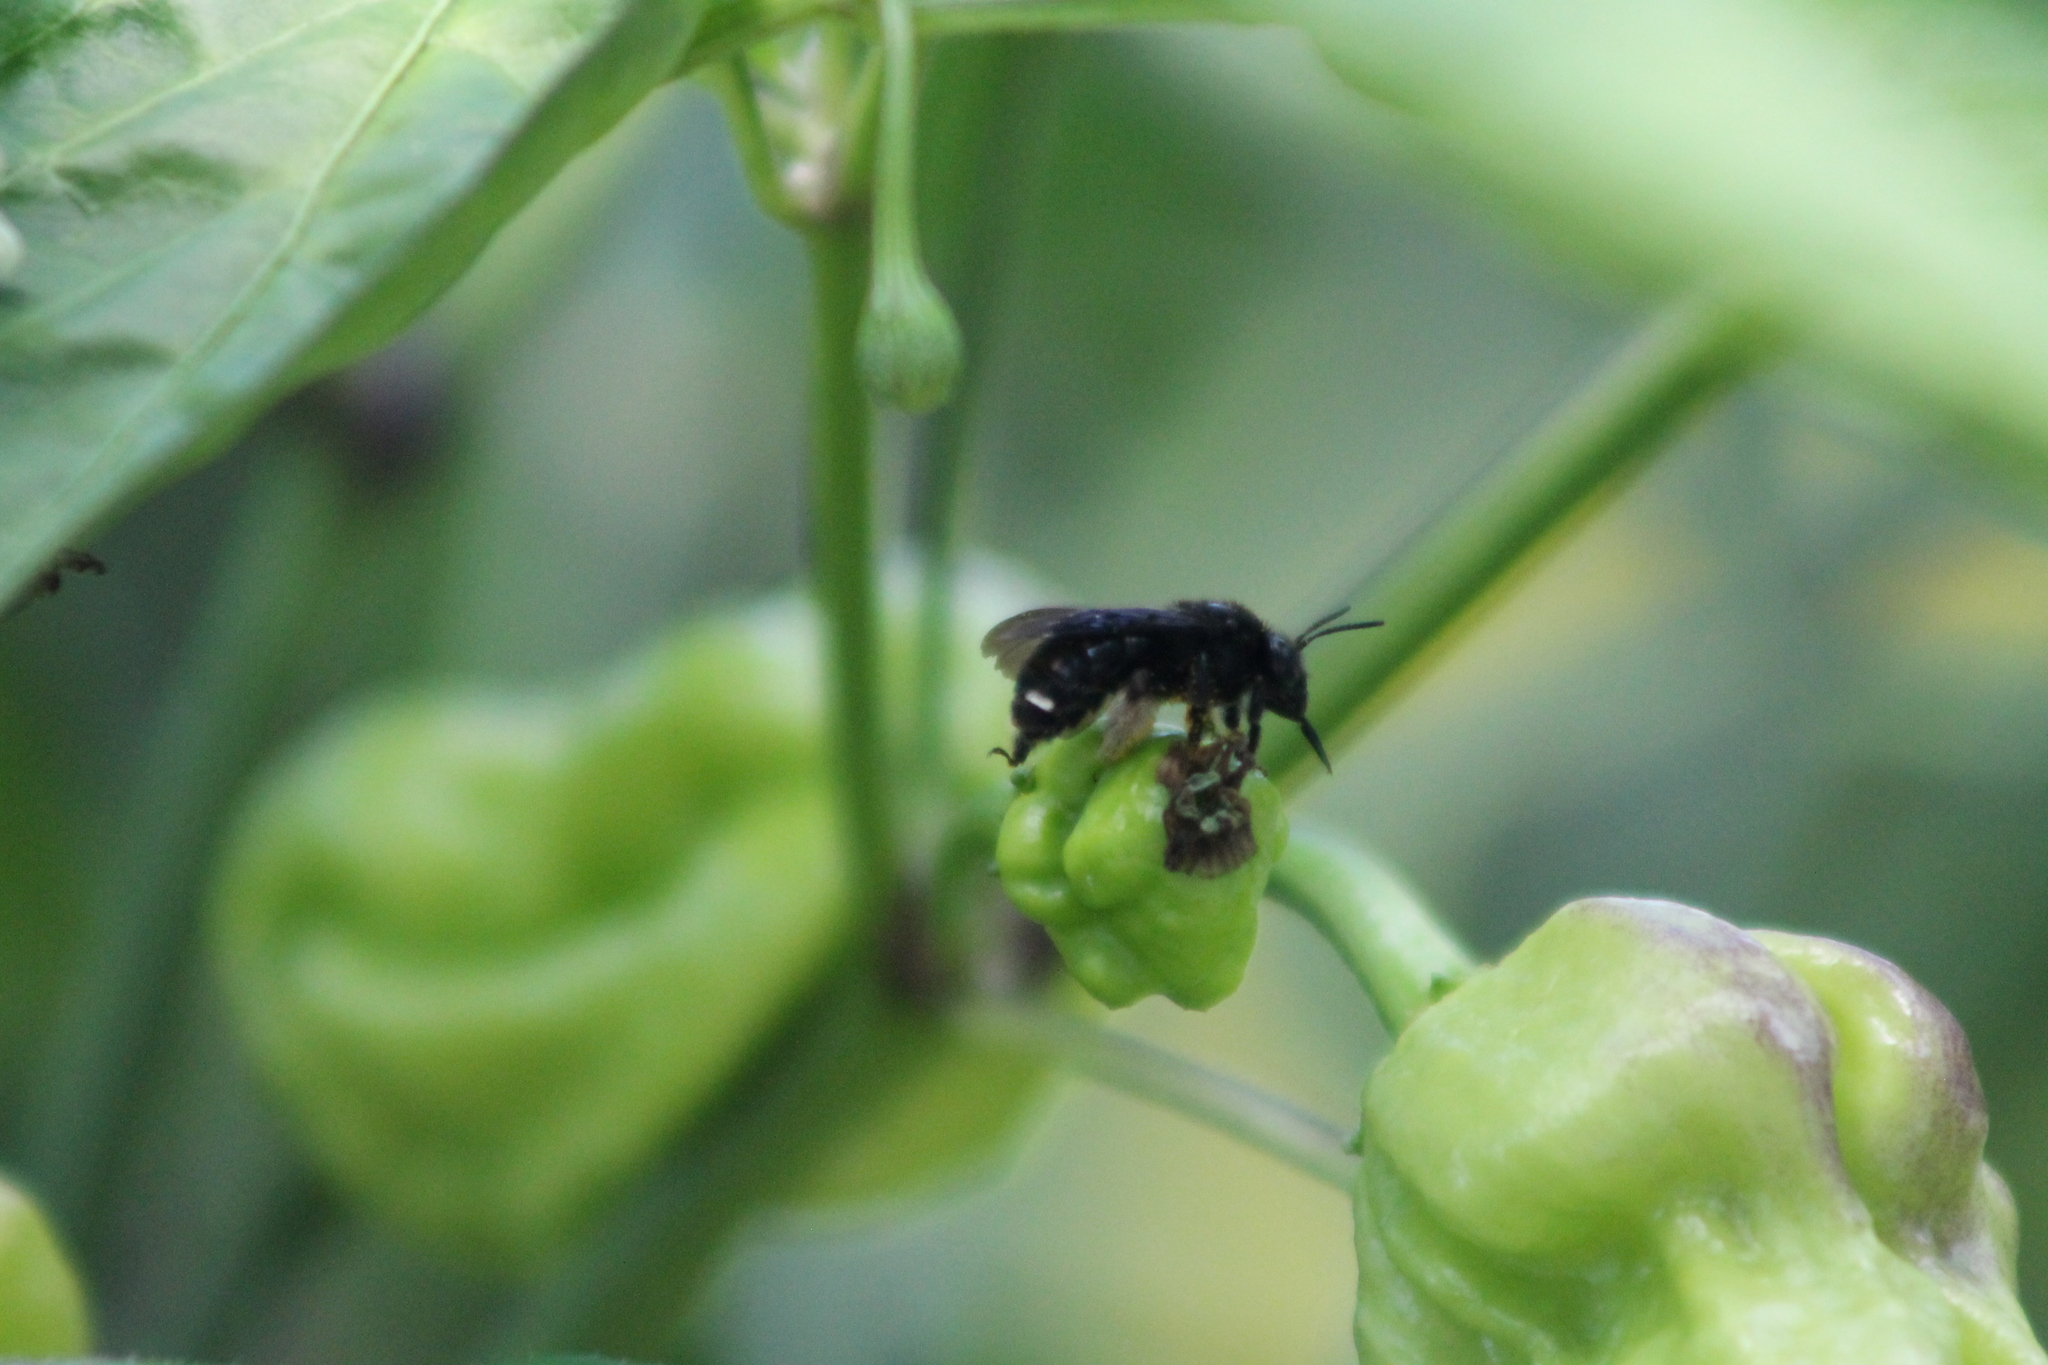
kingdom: Animalia
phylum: Arthropoda
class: Insecta
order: Hymenoptera
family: Apidae
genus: Melissodes
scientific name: Melissodes bimaculatus
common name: Two-spotted long-horned bee
